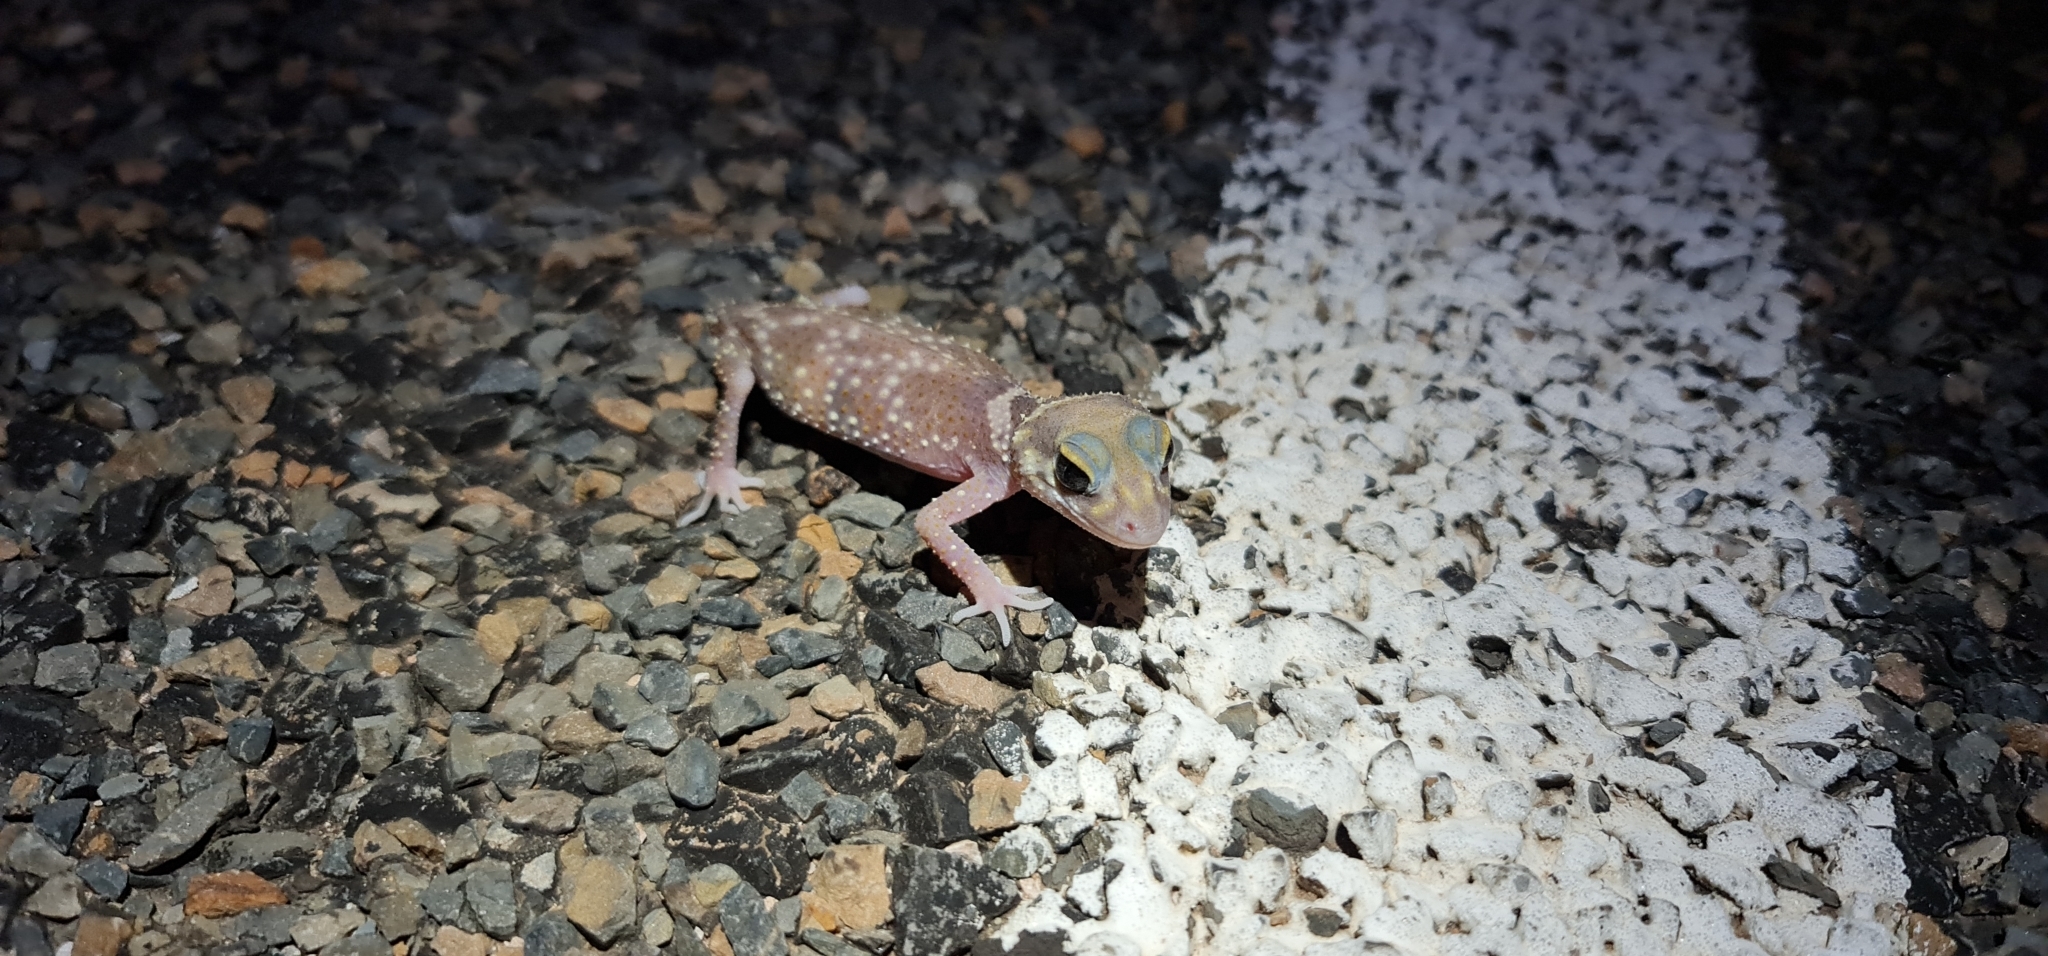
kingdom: Animalia
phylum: Chordata
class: Squamata
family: Carphodactylidae
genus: Underwoodisaurus
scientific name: Underwoodisaurus milii
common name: Barking gecko
